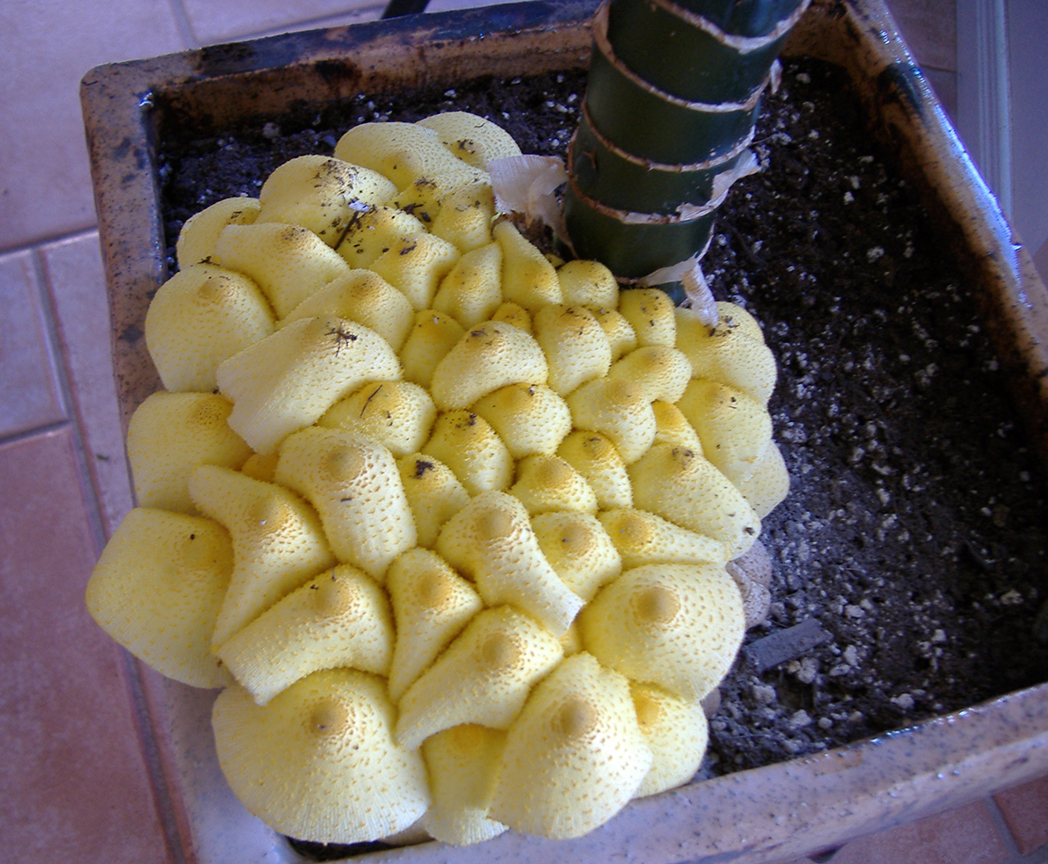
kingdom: Fungi
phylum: Basidiomycota
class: Agaricomycetes
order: Agaricales
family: Agaricaceae
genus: Leucocoprinus
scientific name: Leucocoprinus birnbaumii
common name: Plantpot dapperling
